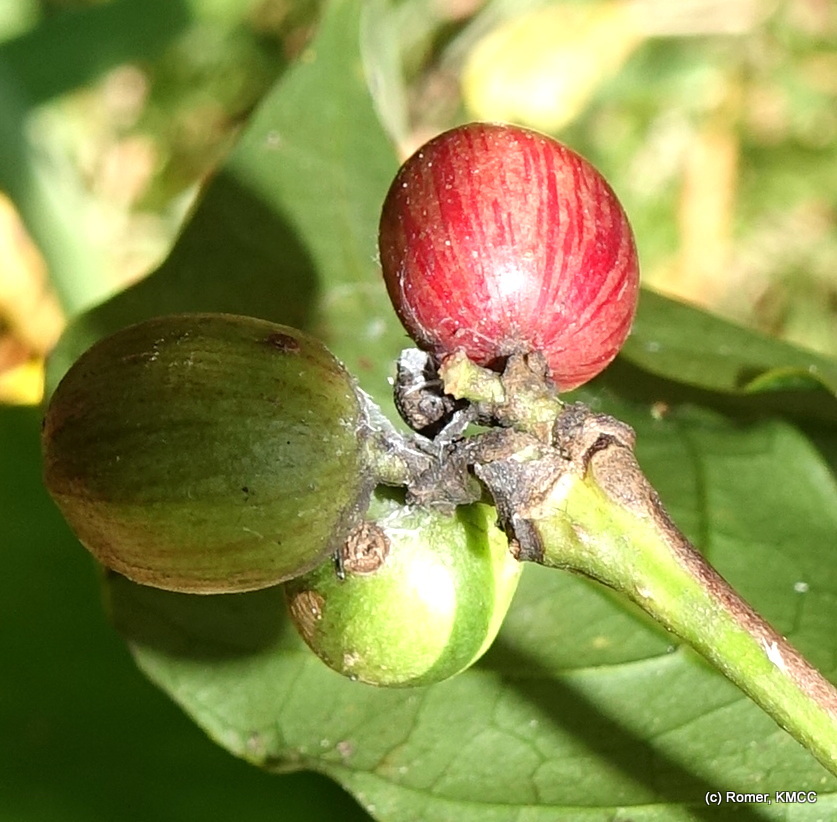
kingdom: Plantae
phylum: Tracheophyta
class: Magnoliopsida
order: Gentianales
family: Rubiaceae
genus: Coffea
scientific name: Coffea liberica
